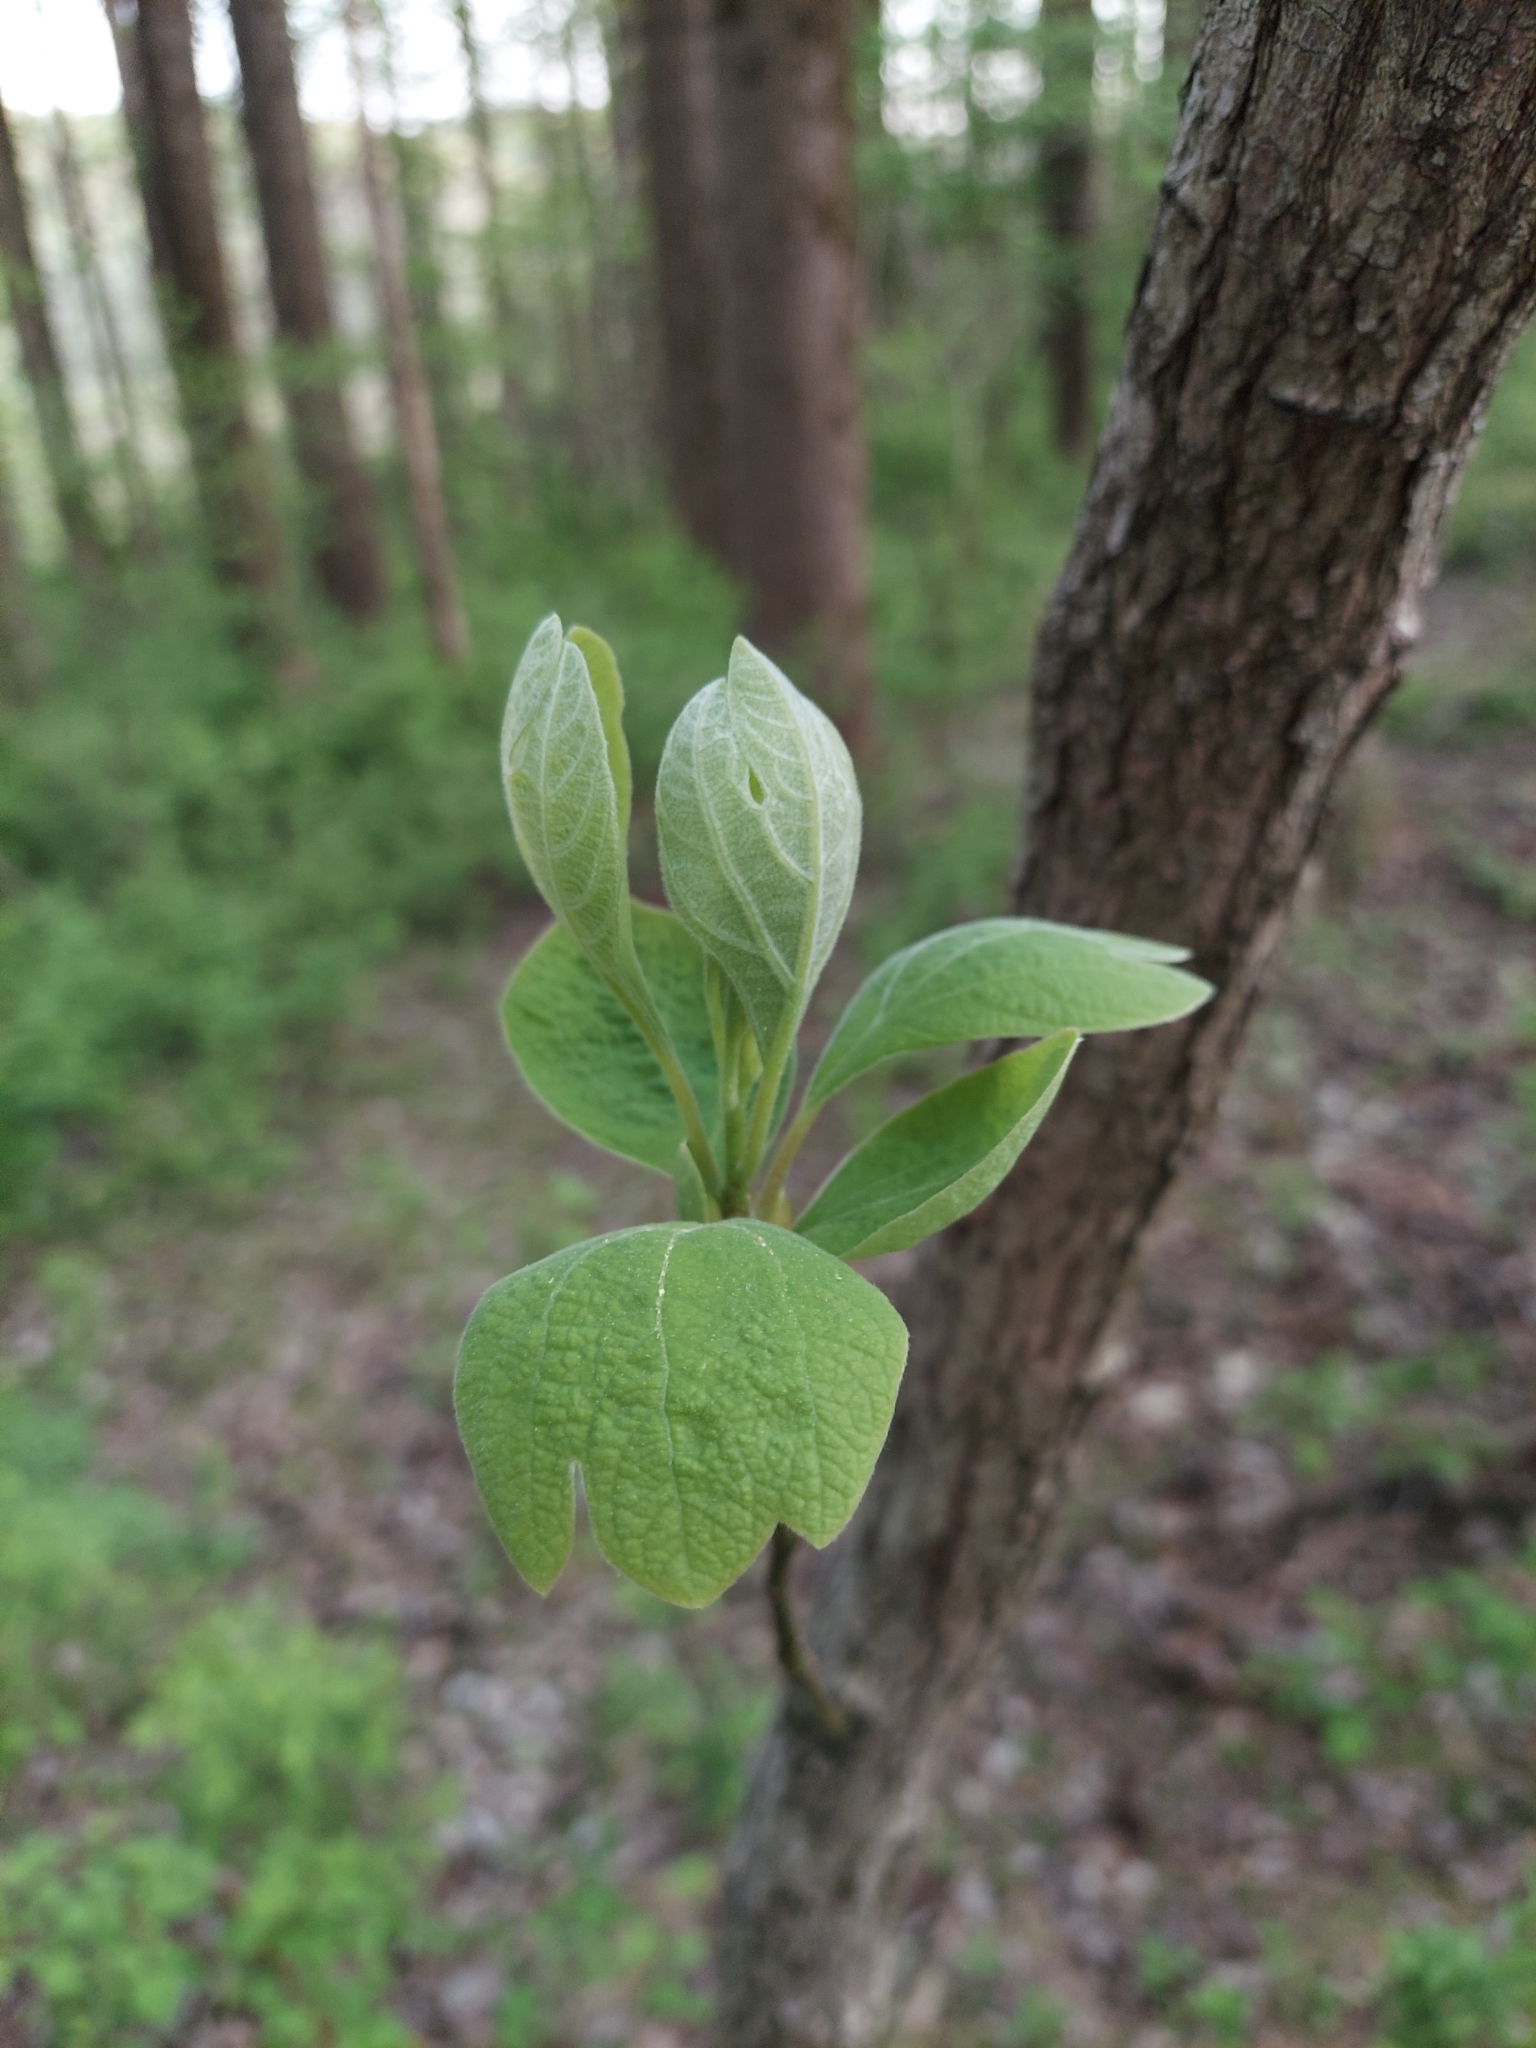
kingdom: Plantae
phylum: Tracheophyta
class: Magnoliopsida
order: Laurales
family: Lauraceae
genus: Sassafras
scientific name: Sassafras albidum
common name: Sassafras
